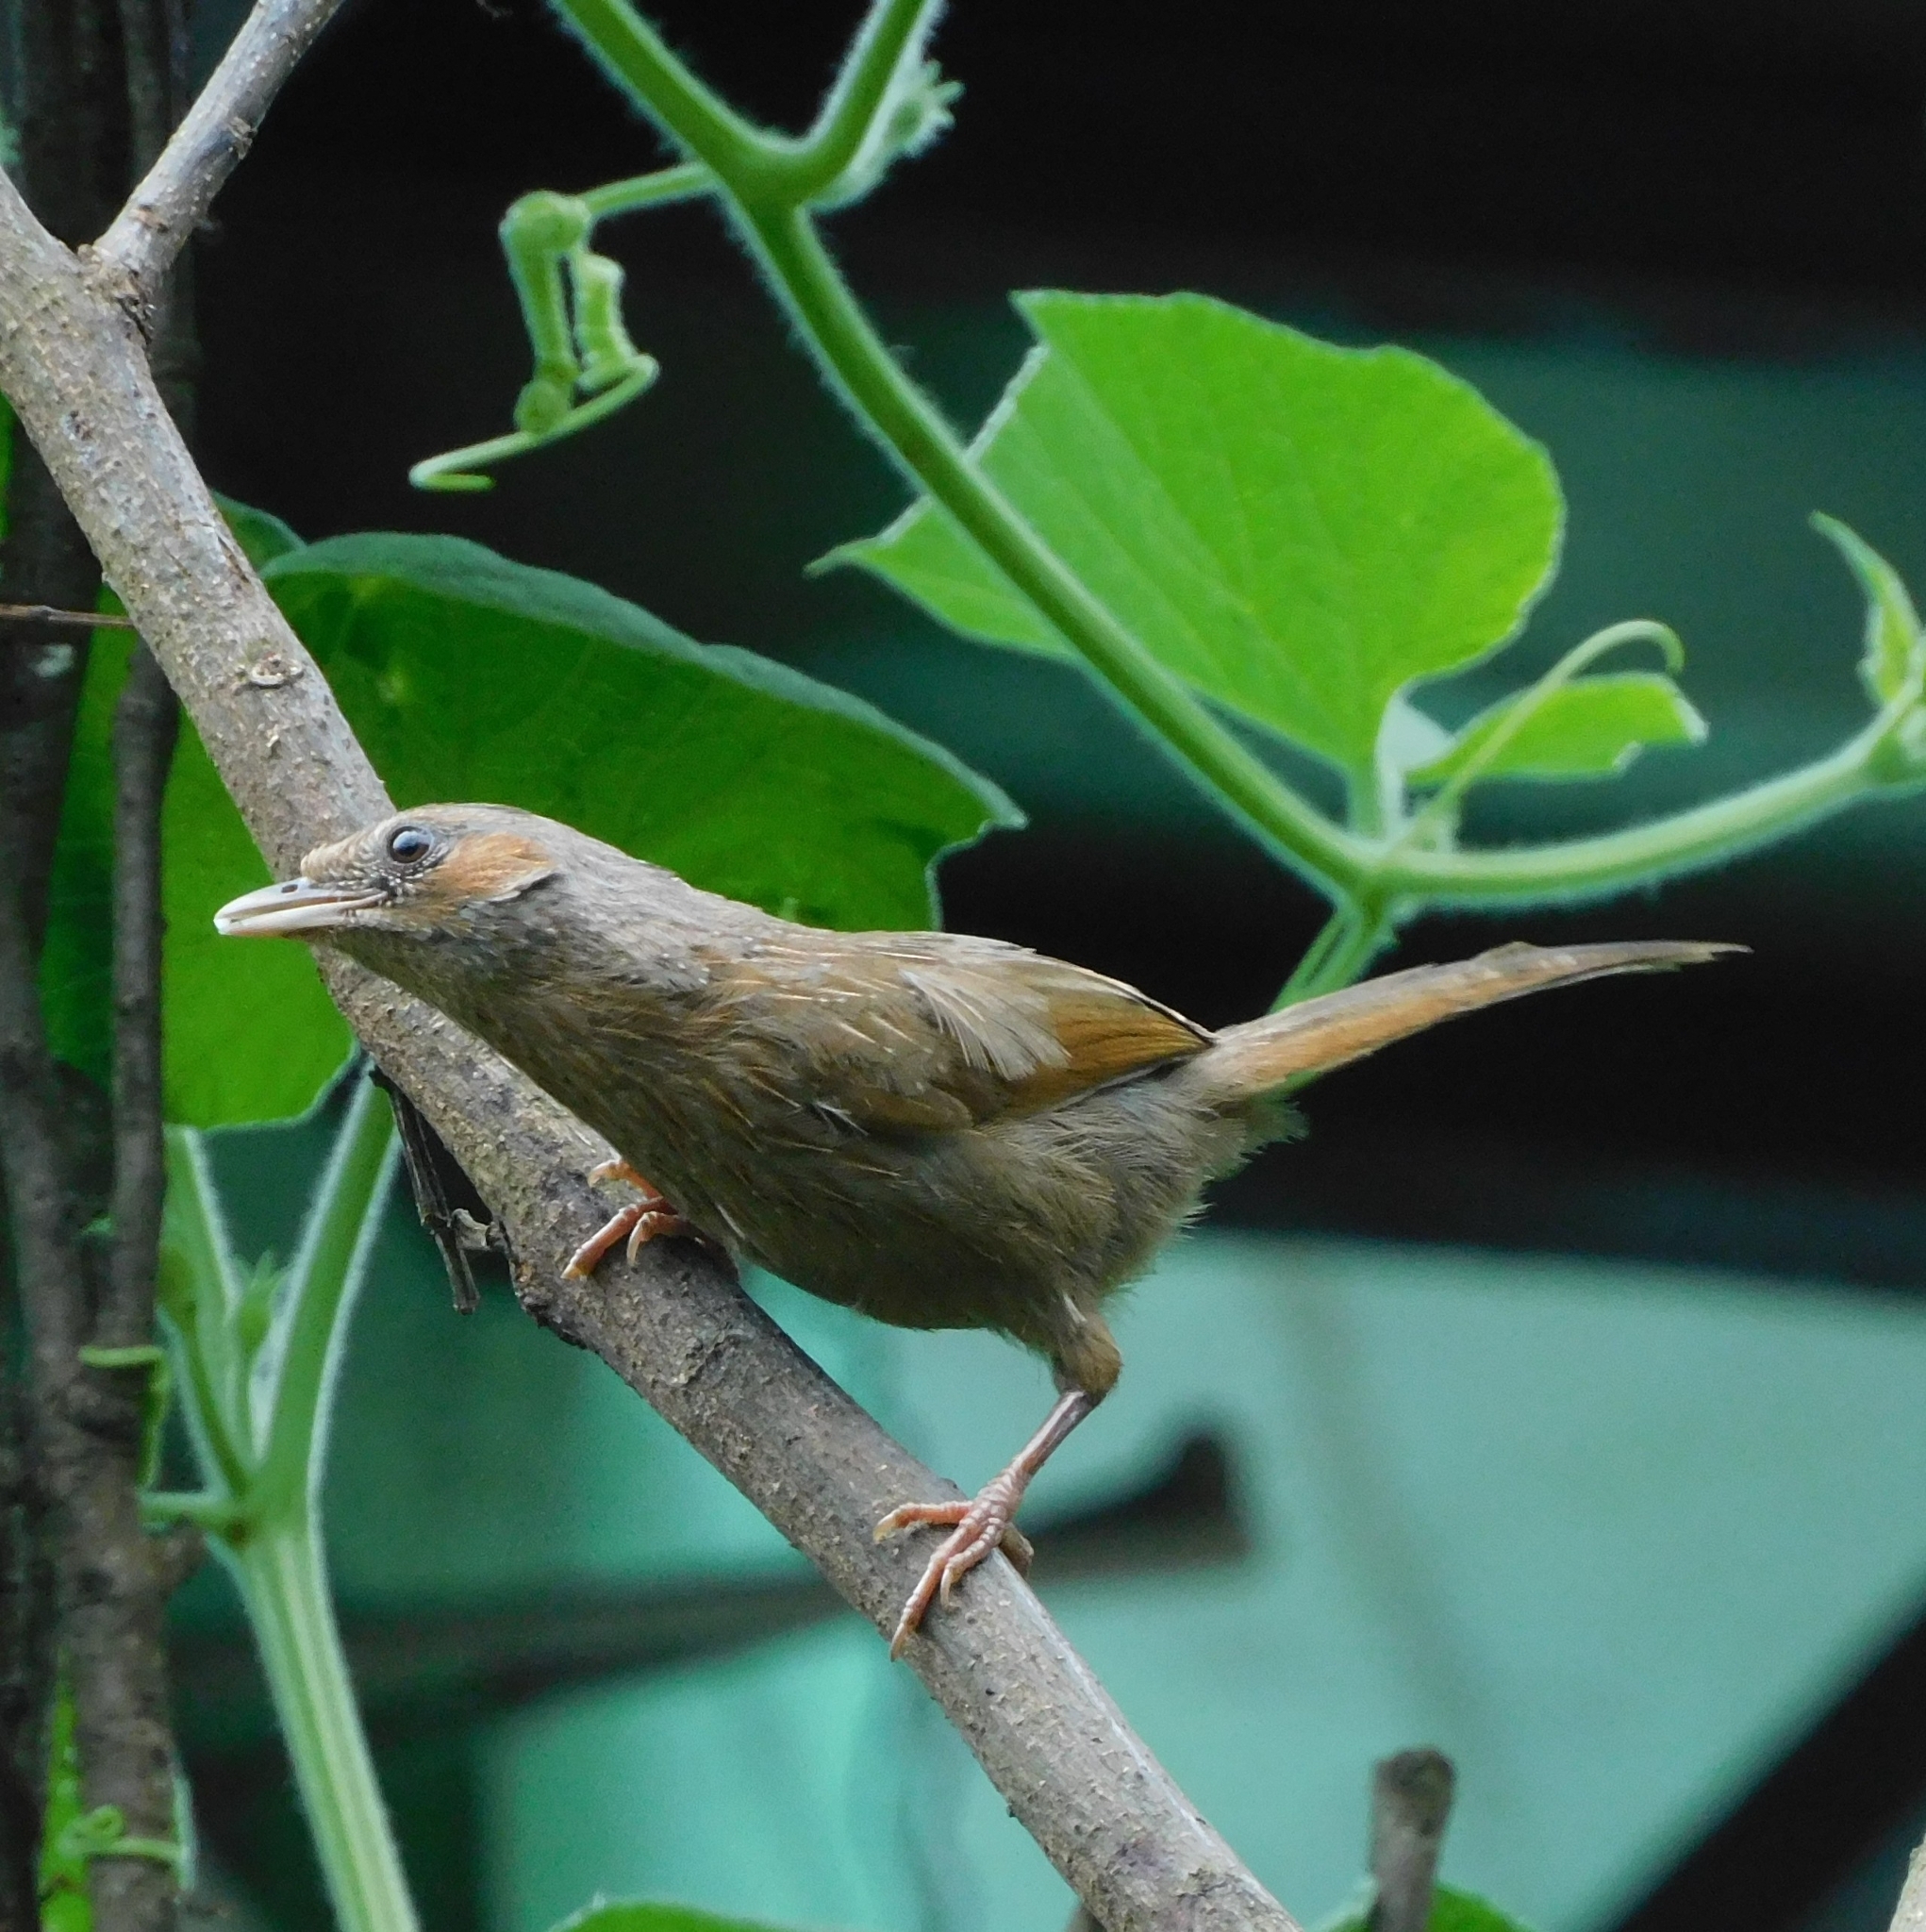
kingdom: Animalia
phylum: Chordata
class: Aves
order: Passeriformes
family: Leiothrichidae
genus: Trochalopteron
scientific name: Trochalopteron lineatum
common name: Streaked laughingthrush
